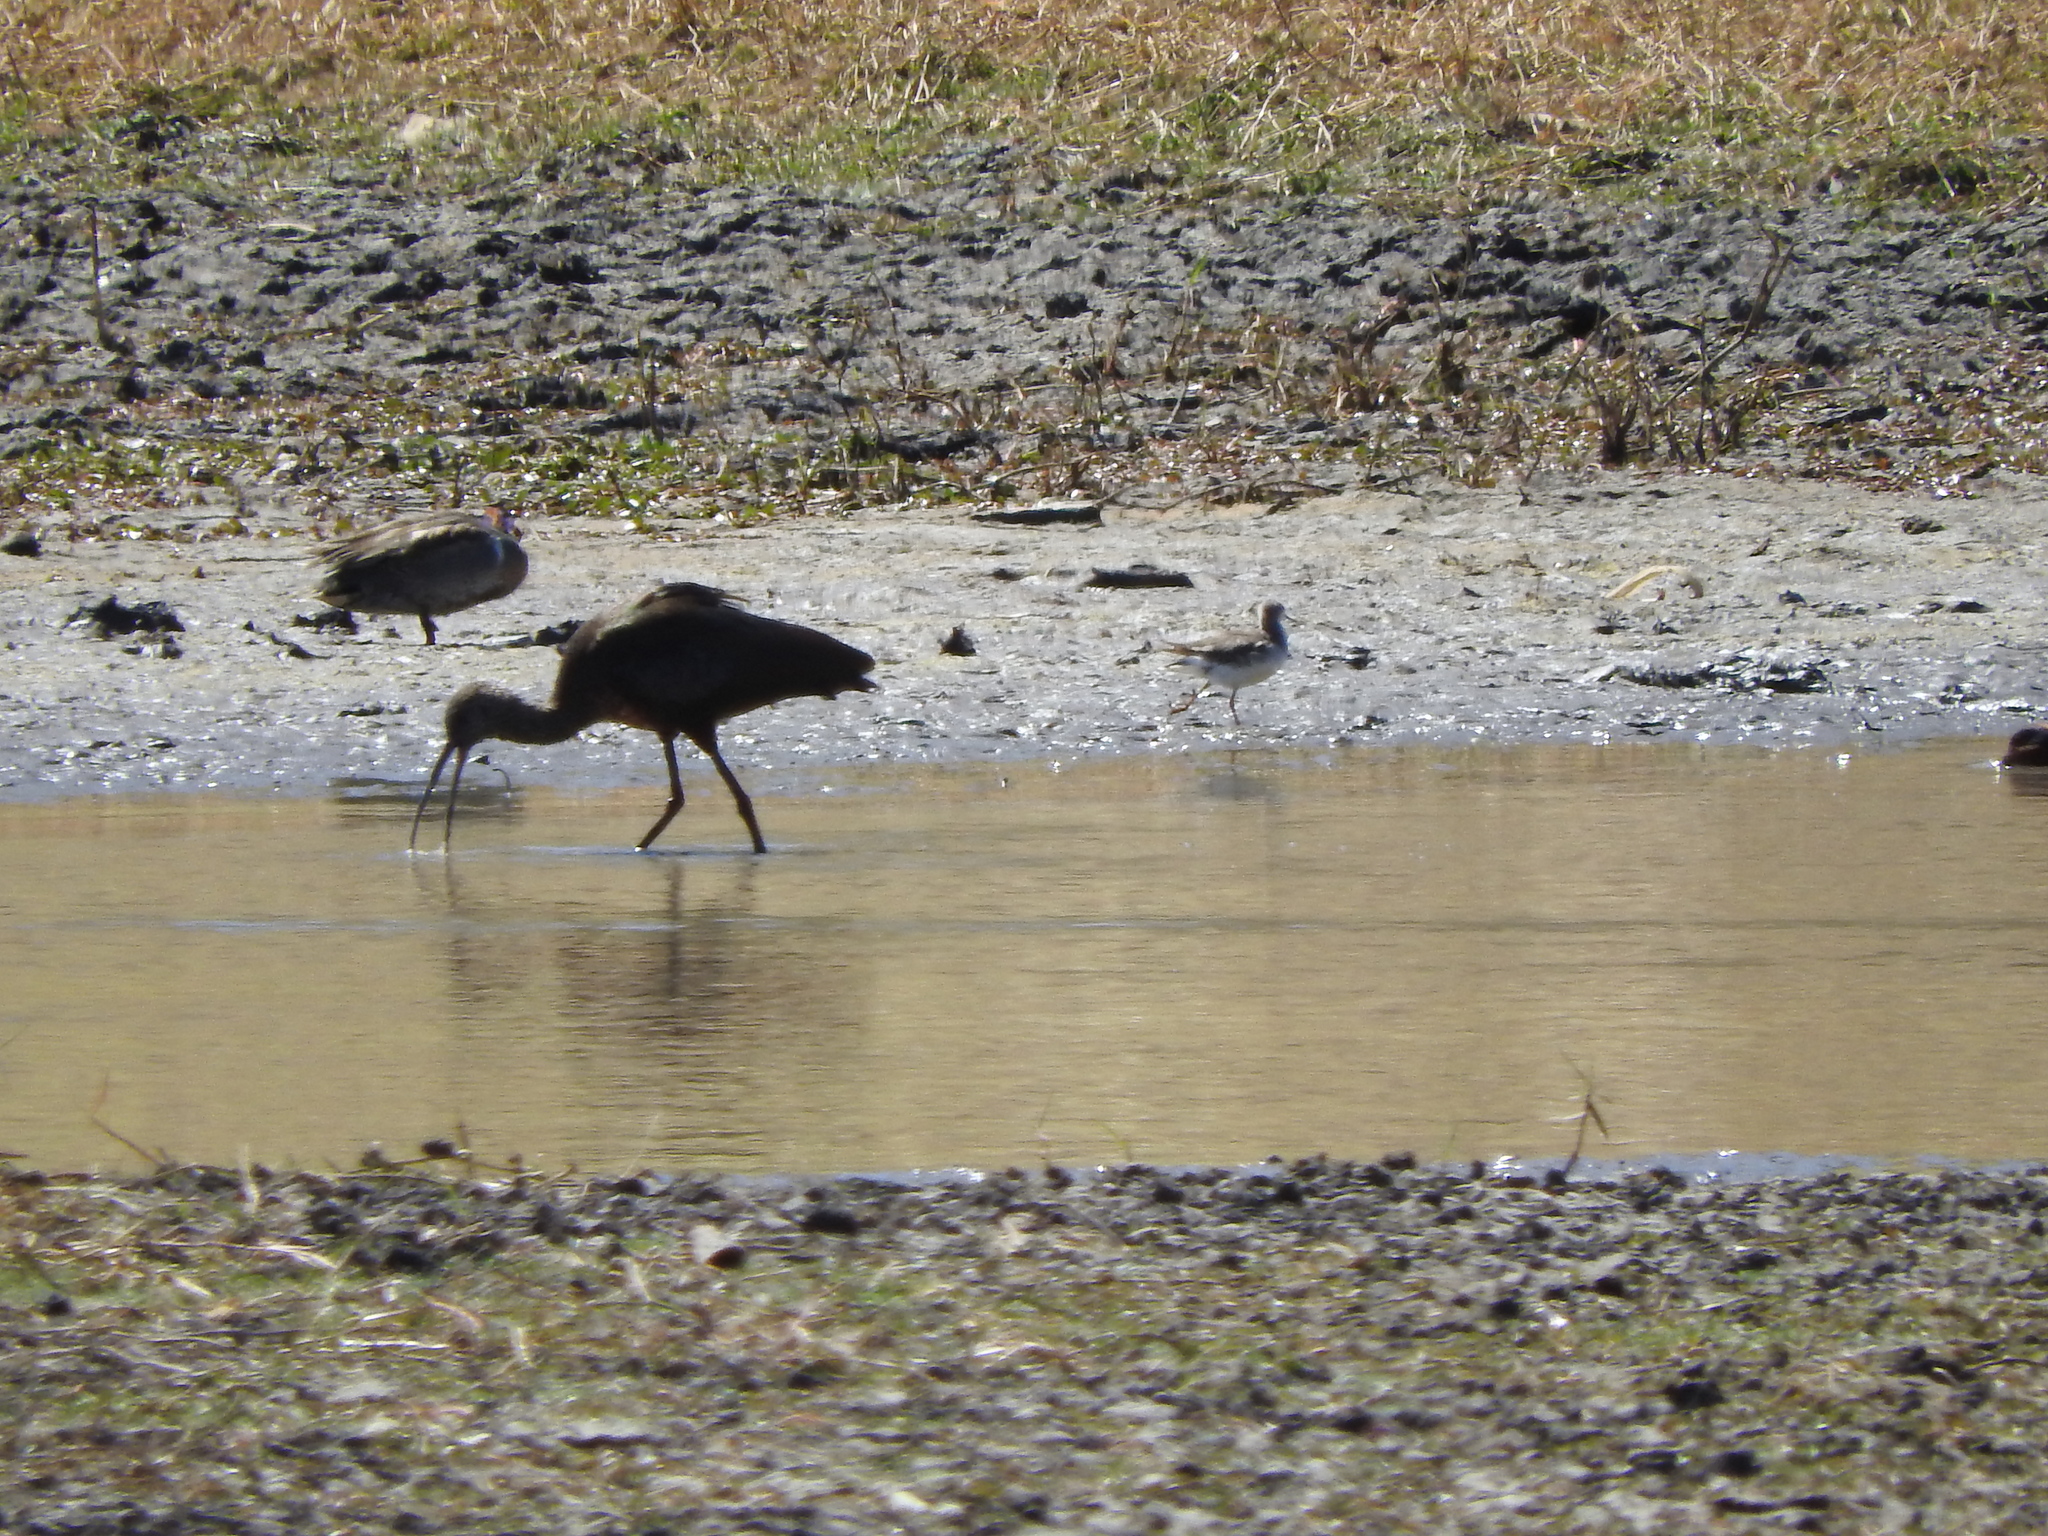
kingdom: Animalia
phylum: Chordata
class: Aves
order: Charadriiformes
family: Scolopacidae
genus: Phalaropus
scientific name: Phalaropus tricolor
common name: Wilson's phalarope
